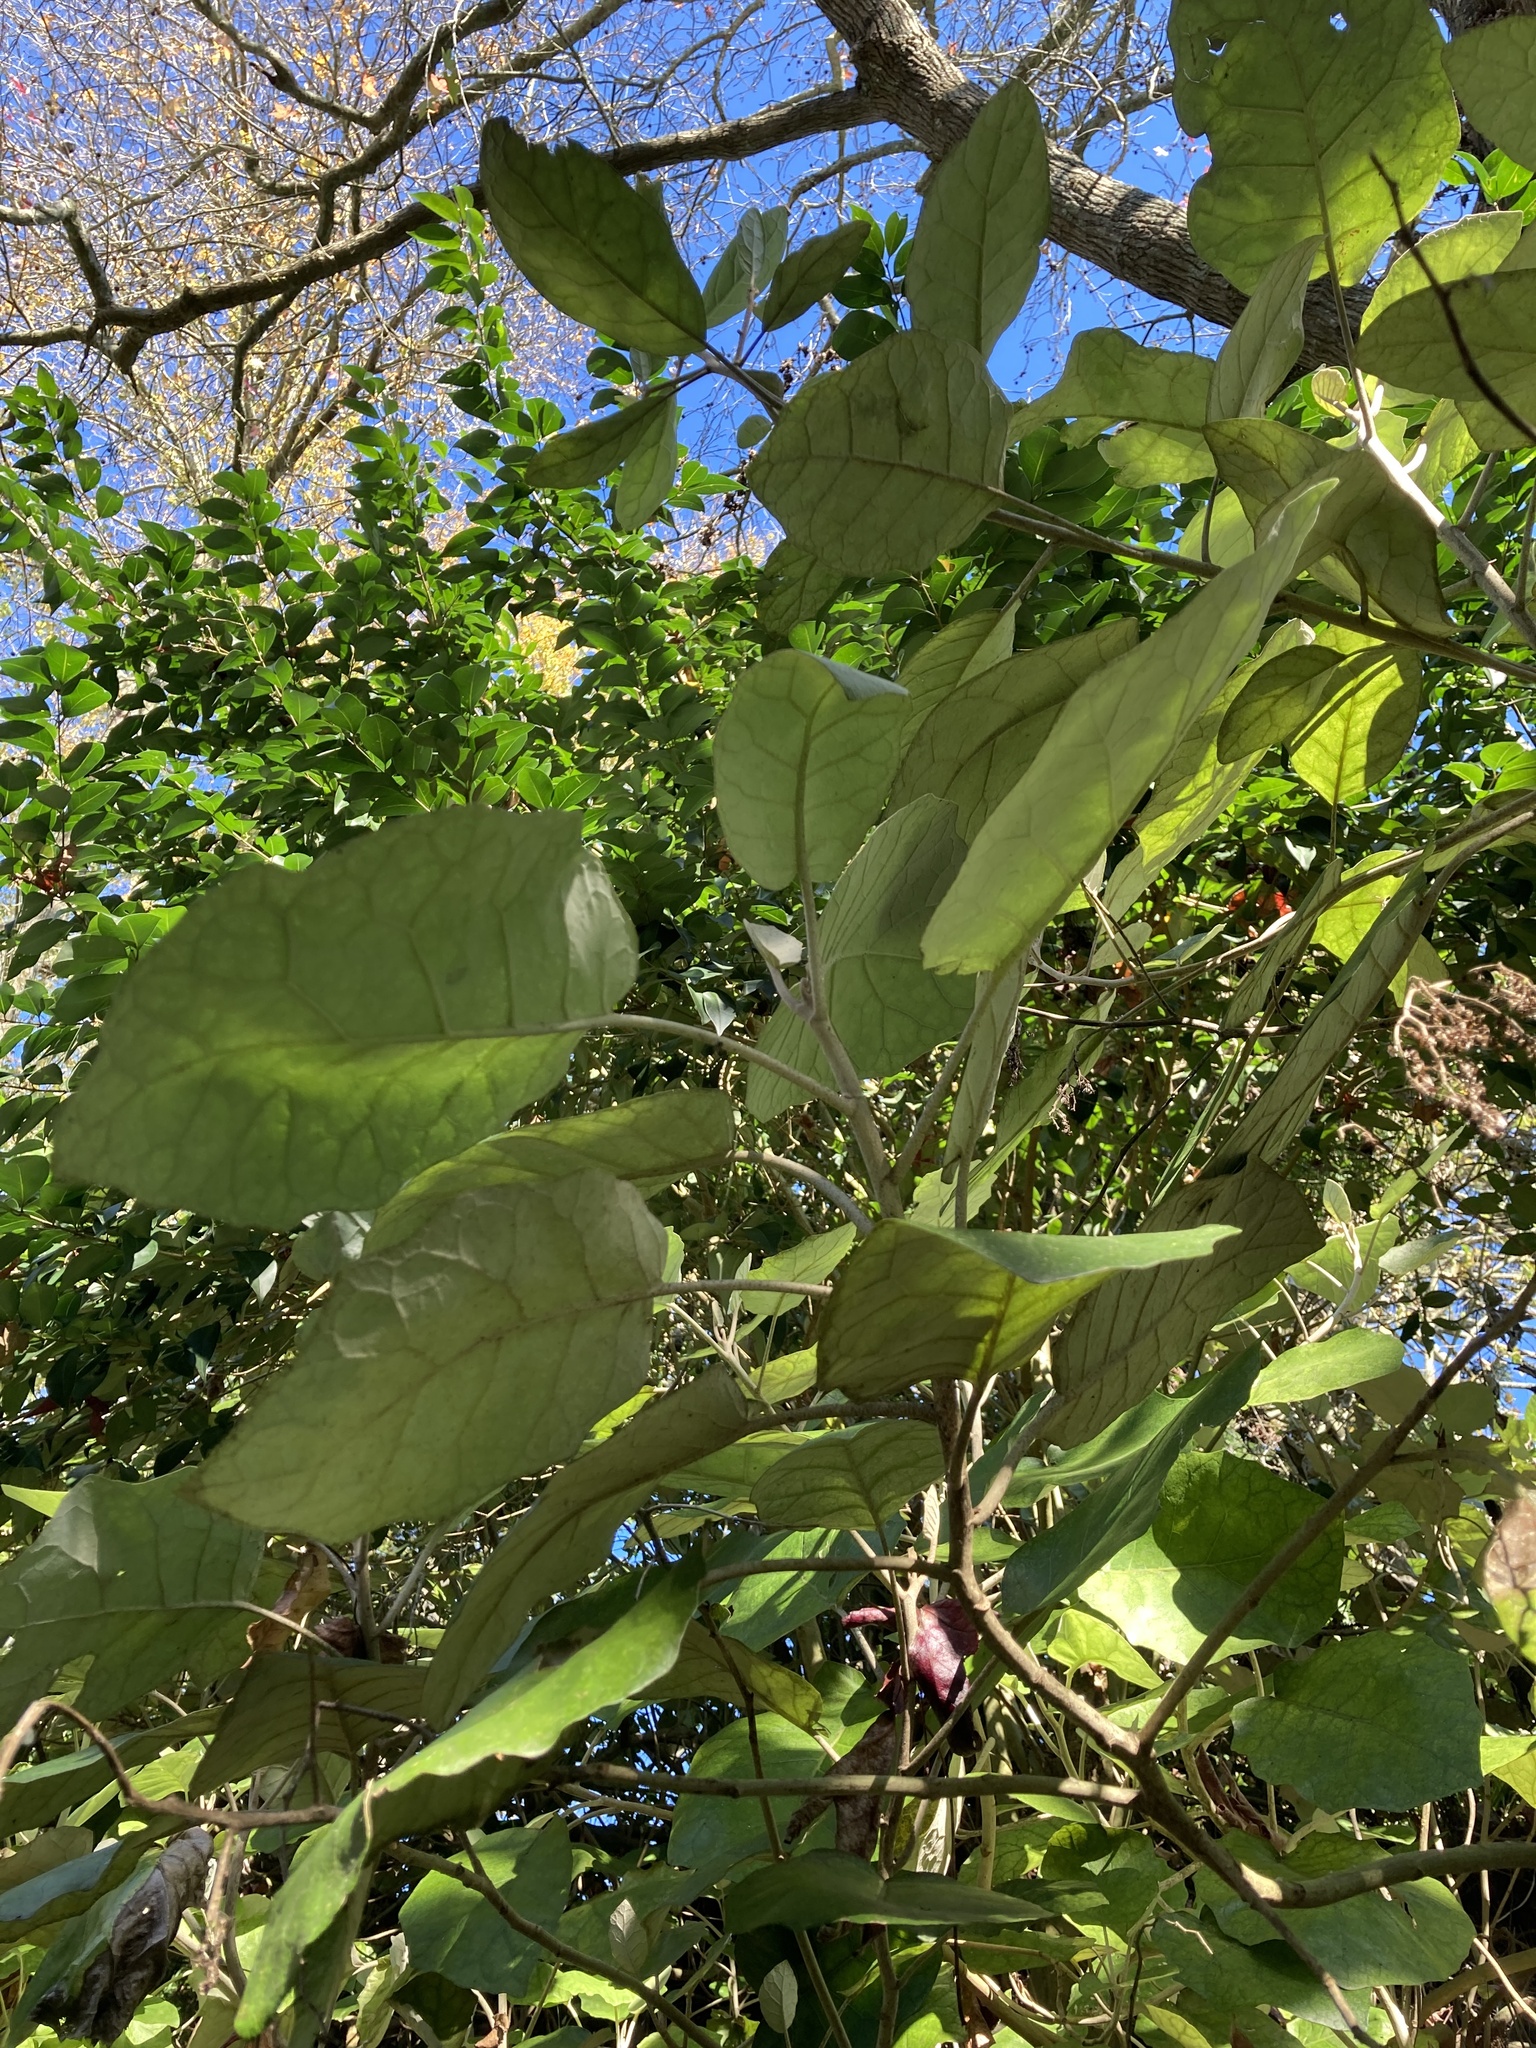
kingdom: Plantae
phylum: Tracheophyta
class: Magnoliopsida
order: Asterales
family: Asteraceae
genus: Brachyglottis
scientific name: Brachyglottis repanda
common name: Hedge ragwort
